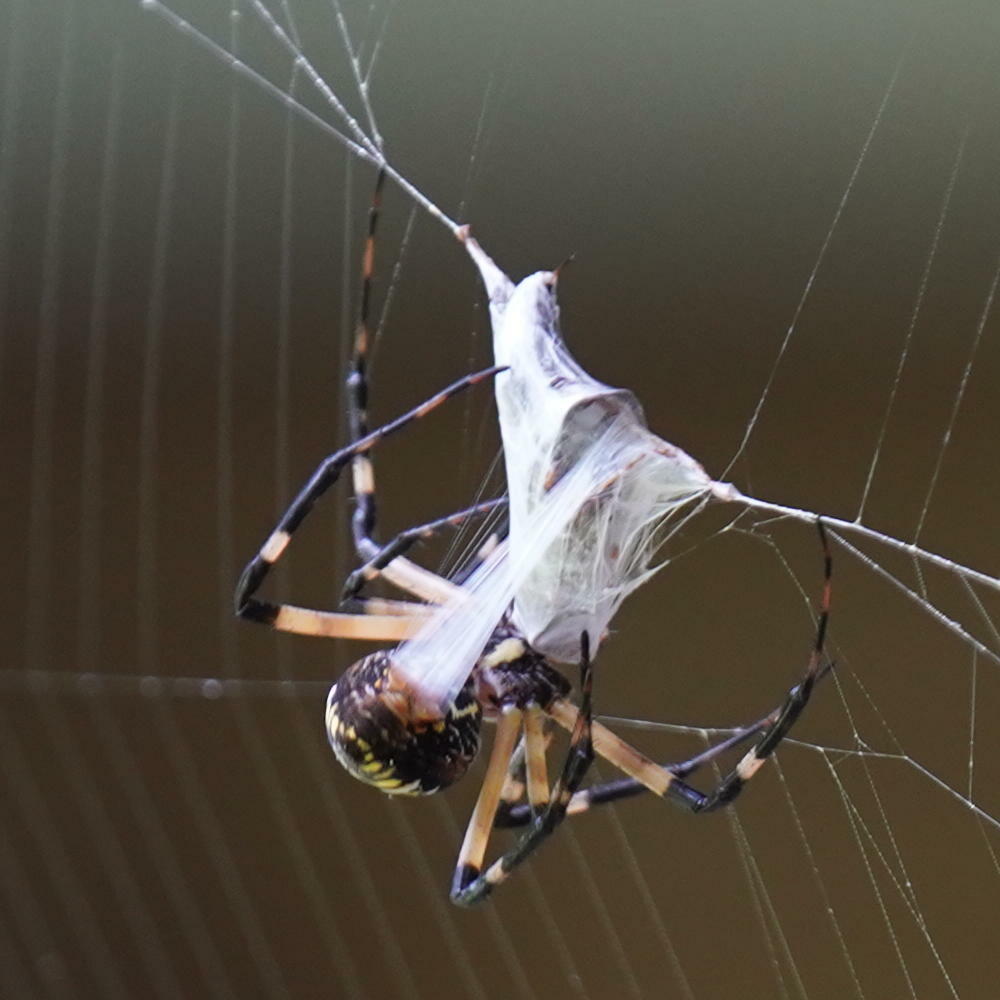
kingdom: Animalia
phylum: Arthropoda
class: Arachnida
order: Araneae
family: Araneidae
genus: Argiope
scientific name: Argiope aurantia
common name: Orb weavers
